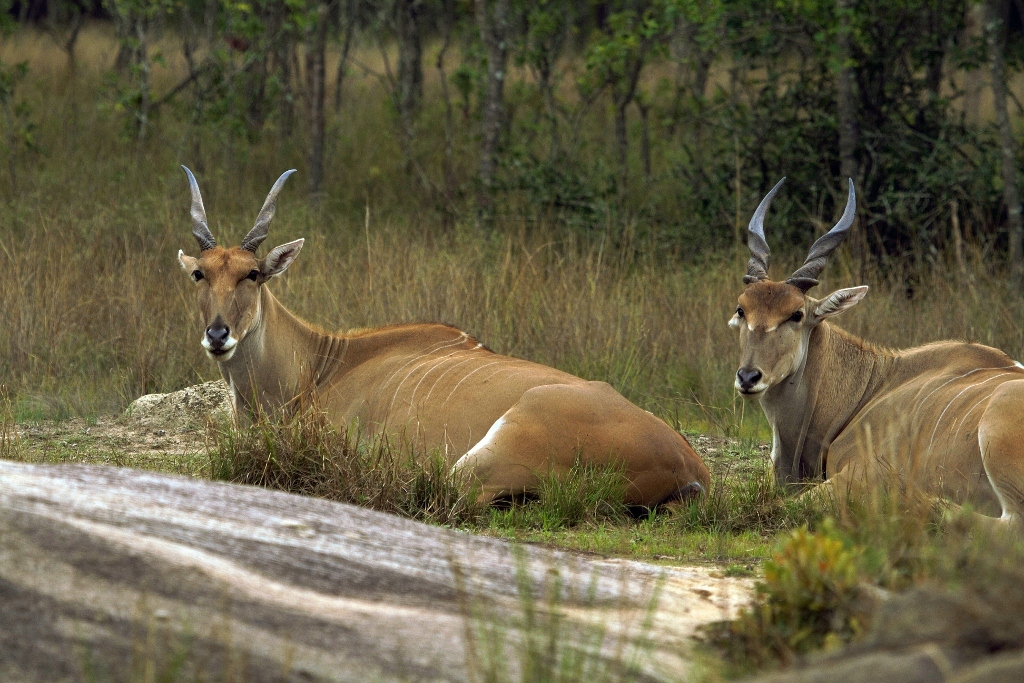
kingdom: Animalia
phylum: Chordata
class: Mammalia
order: Artiodactyla
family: Bovidae
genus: Taurotragus
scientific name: Taurotragus oryx
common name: Common eland
